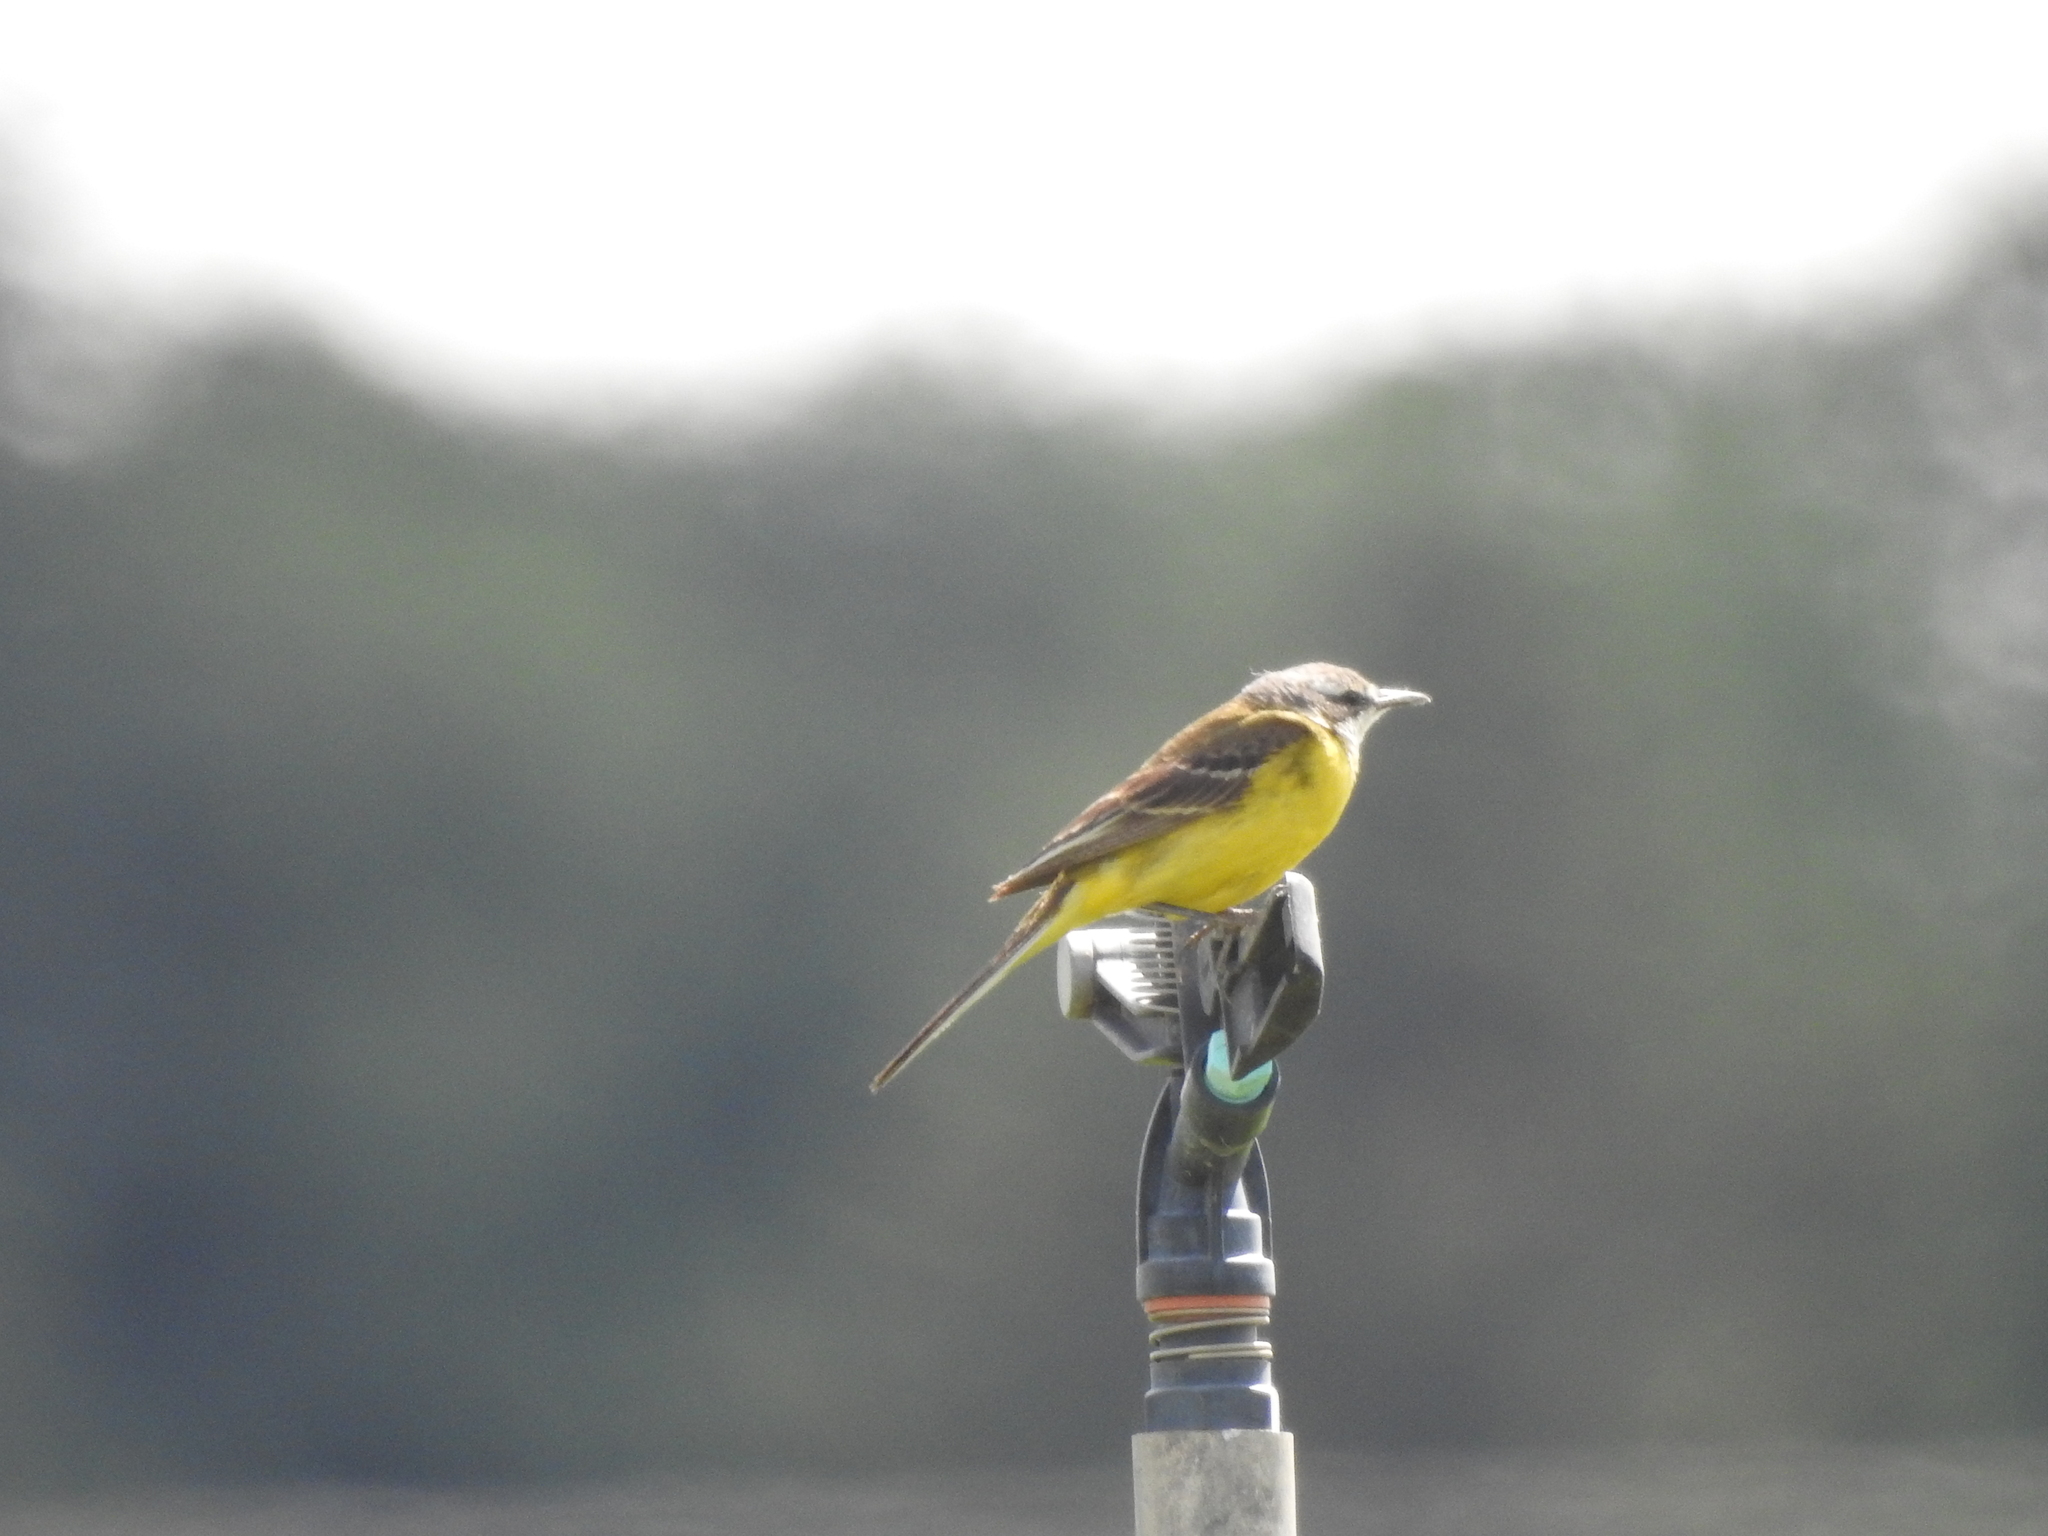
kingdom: Animalia
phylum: Chordata
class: Aves
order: Passeriformes
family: Motacillidae
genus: Motacilla
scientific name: Motacilla flava
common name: Western yellow wagtail
